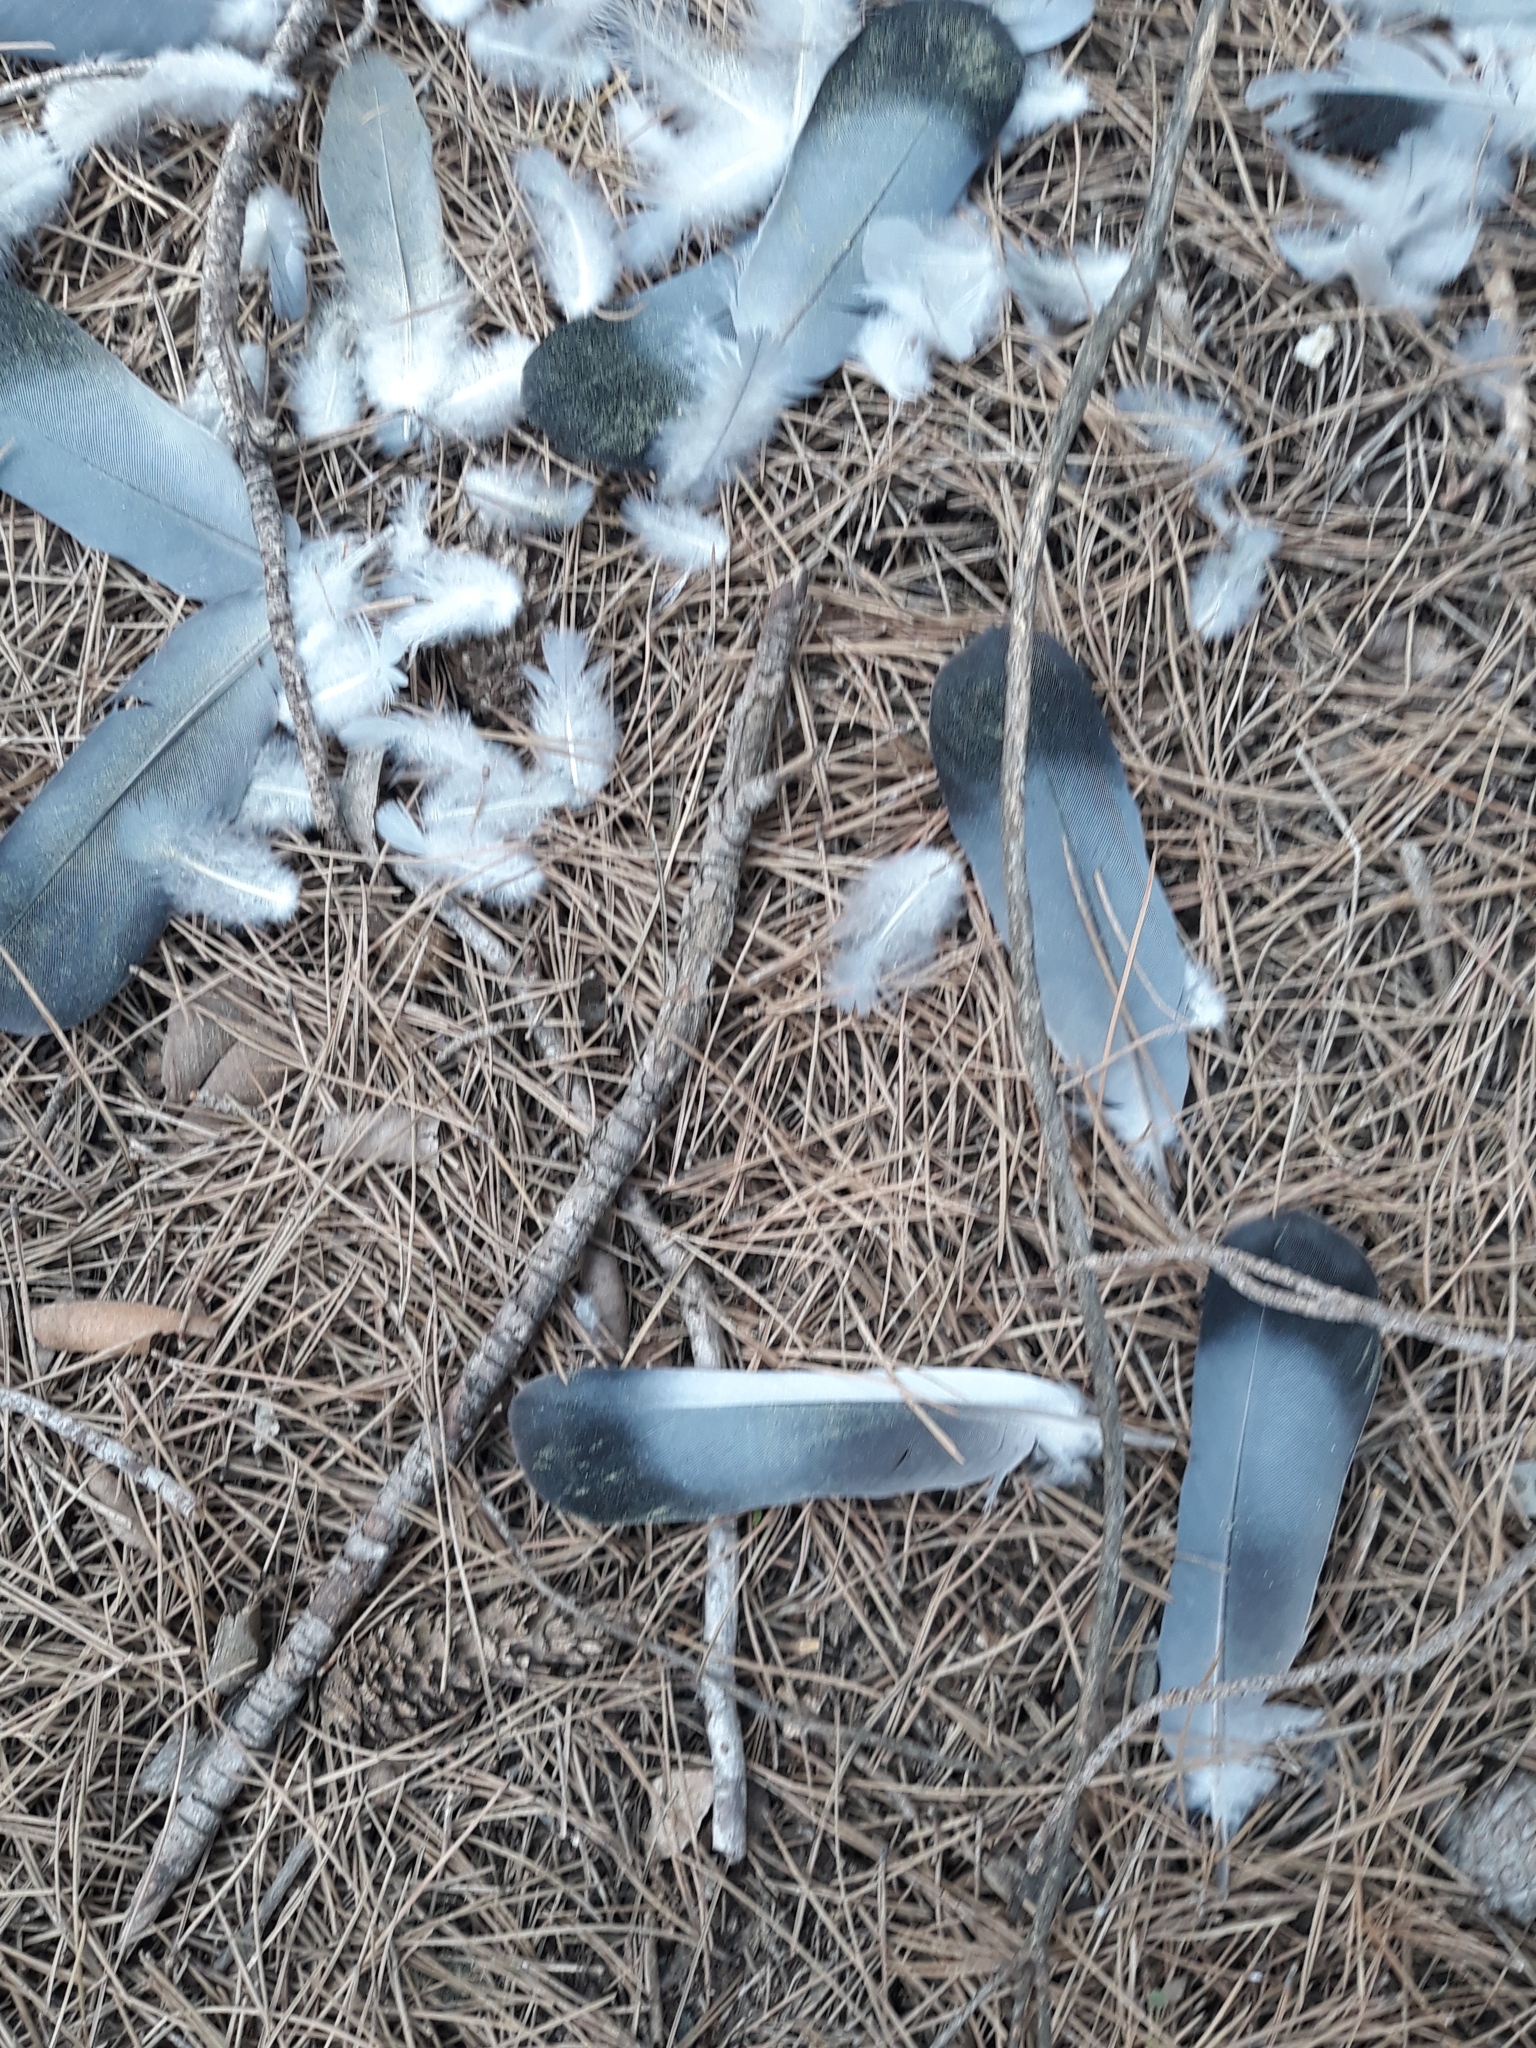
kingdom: Animalia
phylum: Chordata
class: Aves
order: Columbiformes
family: Columbidae
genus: Columba
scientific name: Columba livia
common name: Rock pigeon
